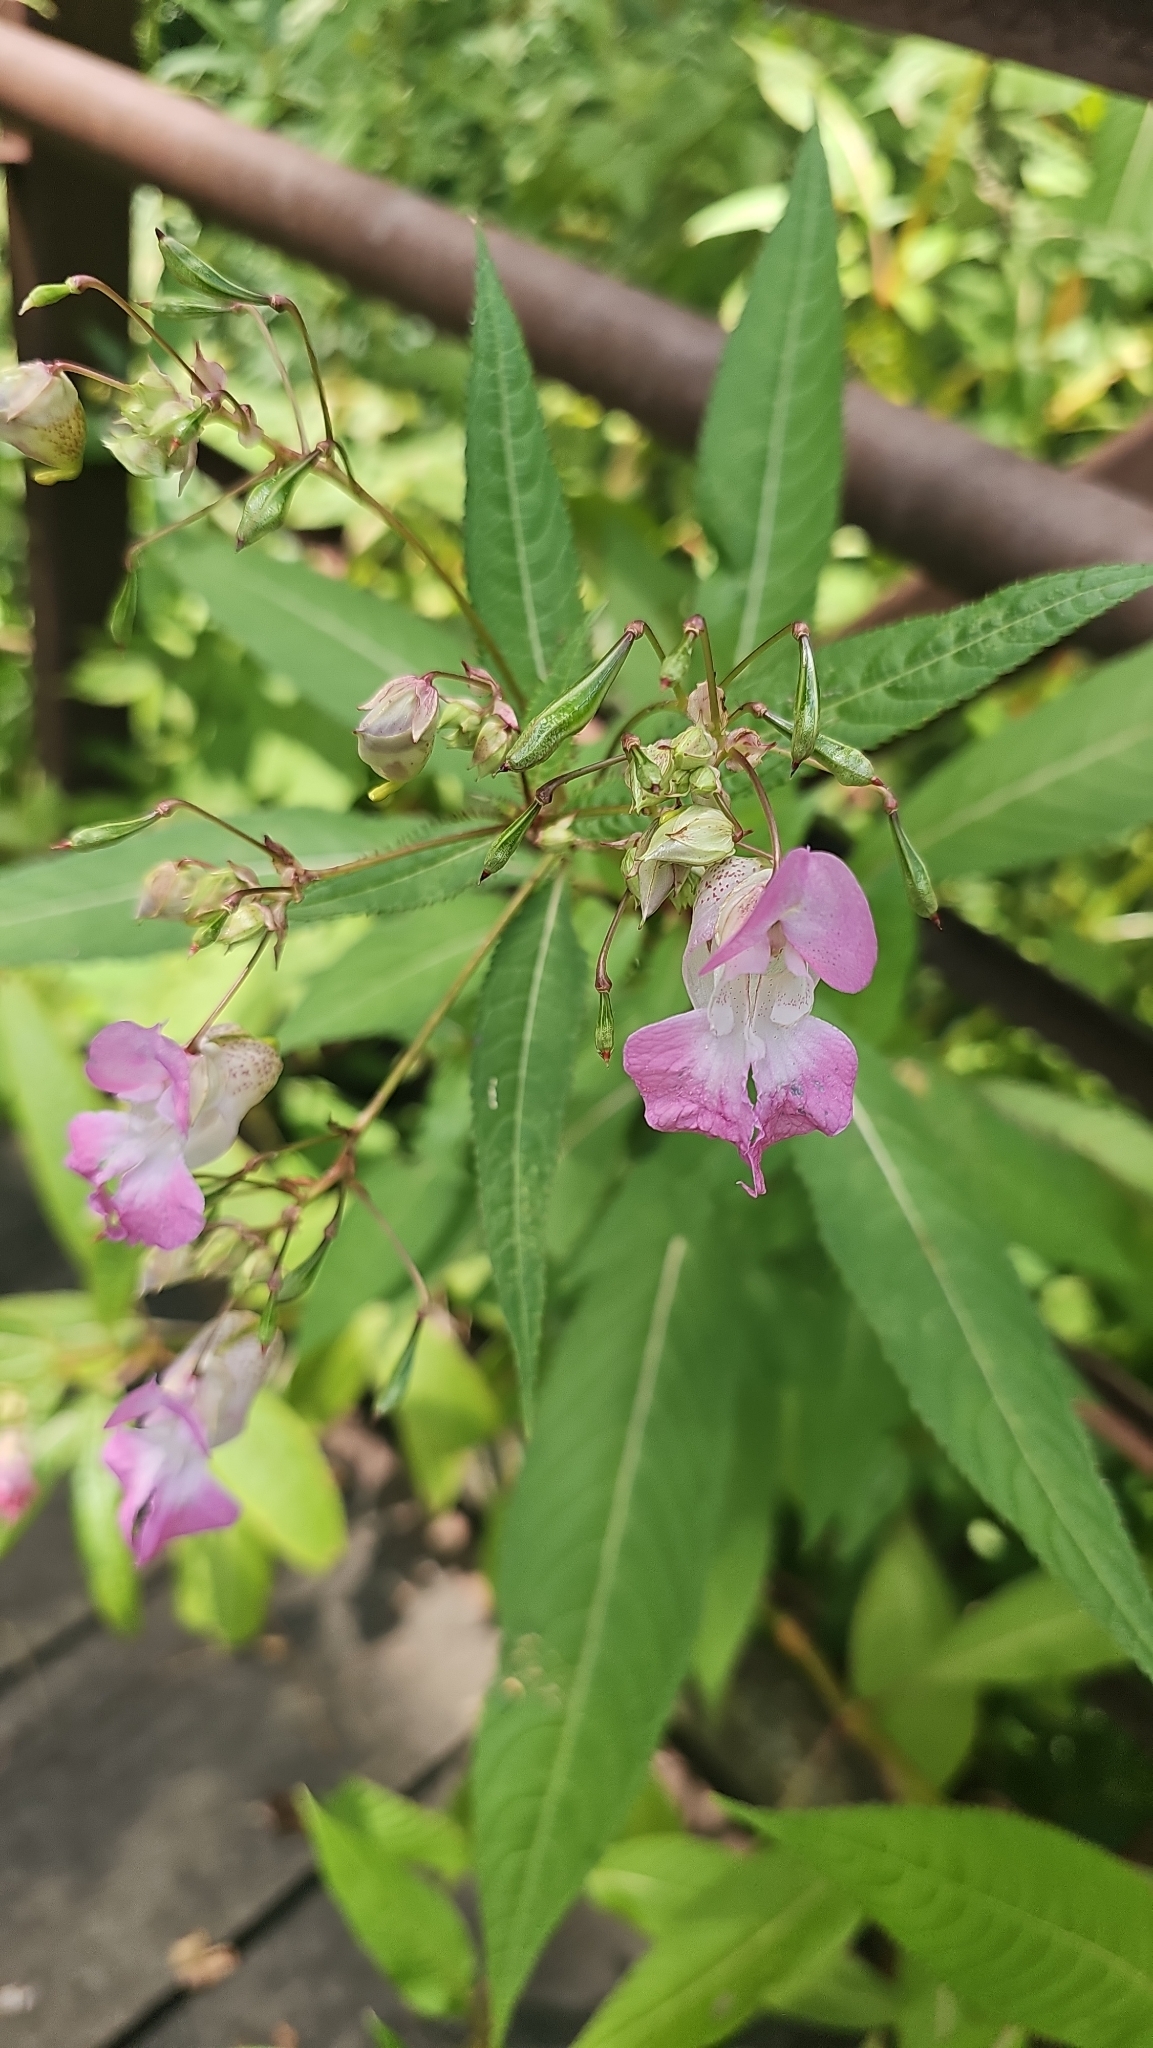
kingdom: Plantae
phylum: Tracheophyta
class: Magnoliopsida
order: Ericales
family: Balsaminaceae
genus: Impatiens
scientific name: Impatiens glandulifera
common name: Himalayan balsam
